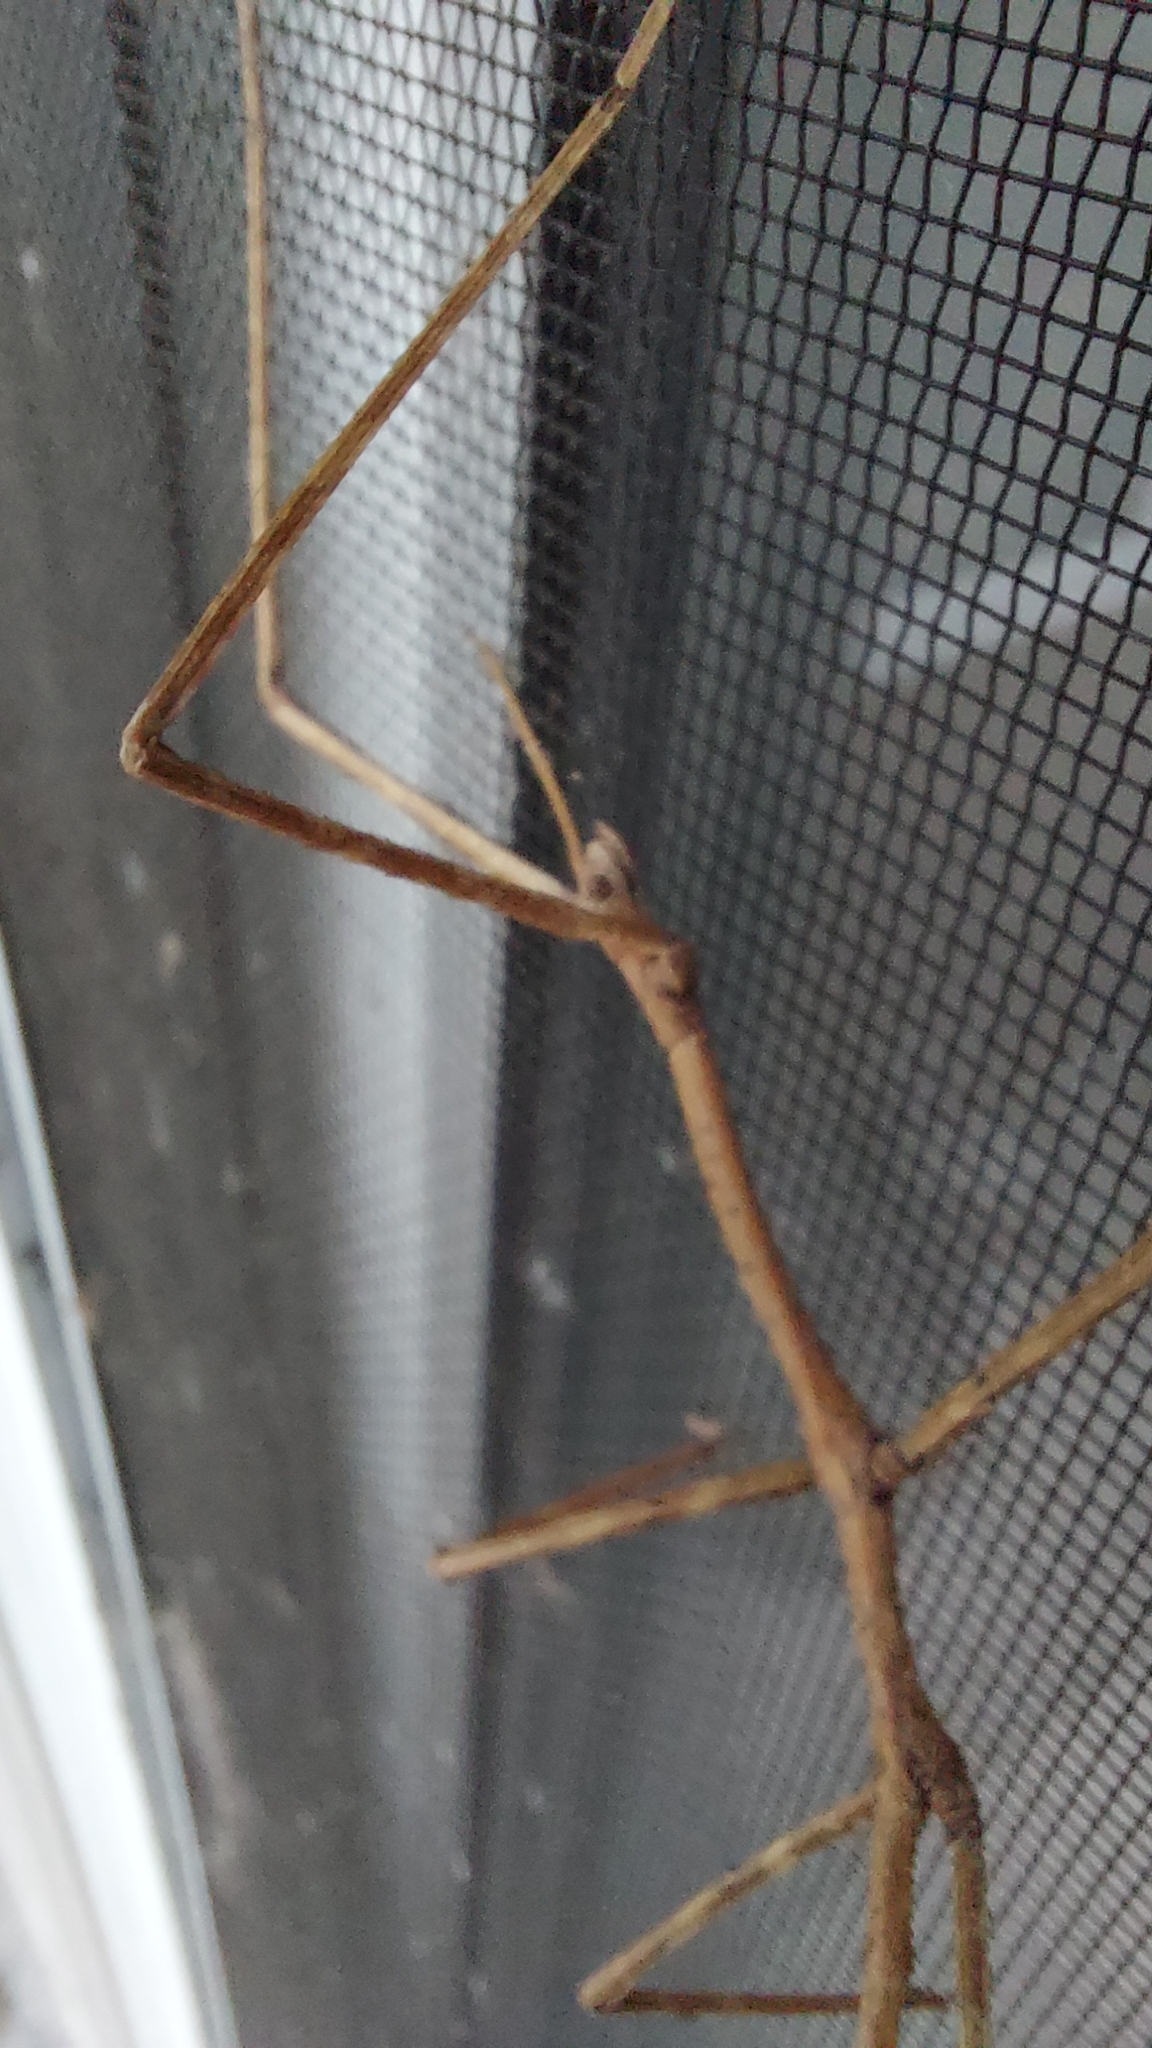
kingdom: Animalia
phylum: Arthropoda
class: Insecta
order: Phasmida
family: Phasmatidae
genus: Ctenomorpha
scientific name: Ctenomorpha marginipennis
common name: Margined-winged stick-insect
